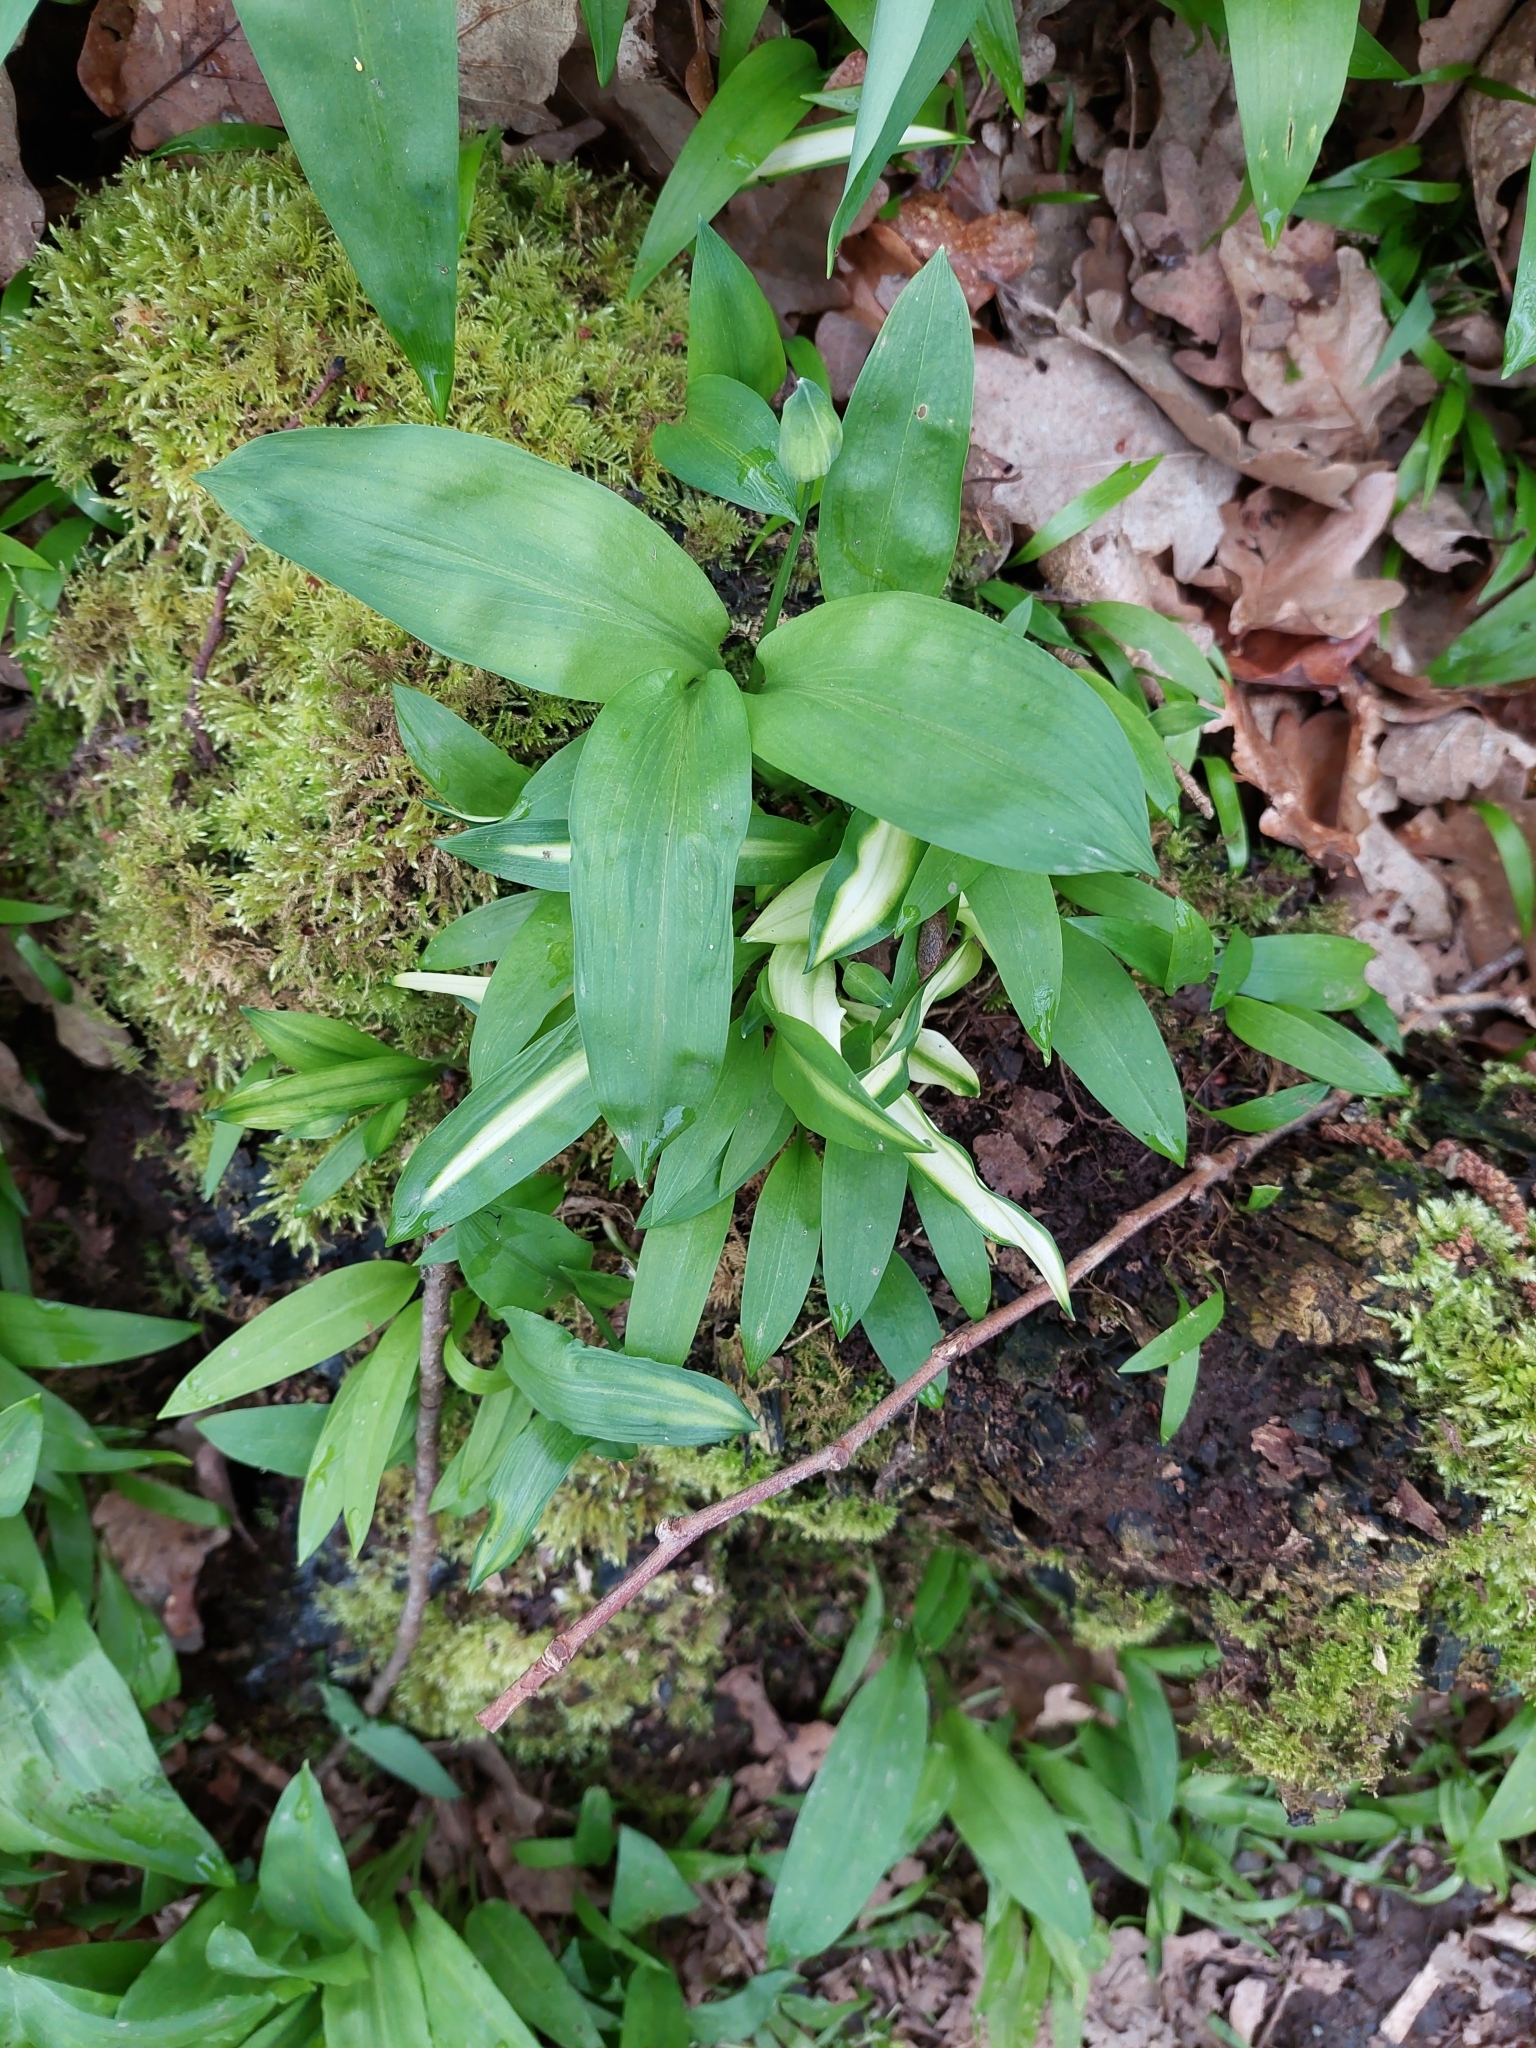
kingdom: Plantae
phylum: Tracheophyta
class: Liliopsida
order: Asparagales
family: Amaryllidaceae
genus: Allium
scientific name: Allium ursinum
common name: Ramsons
